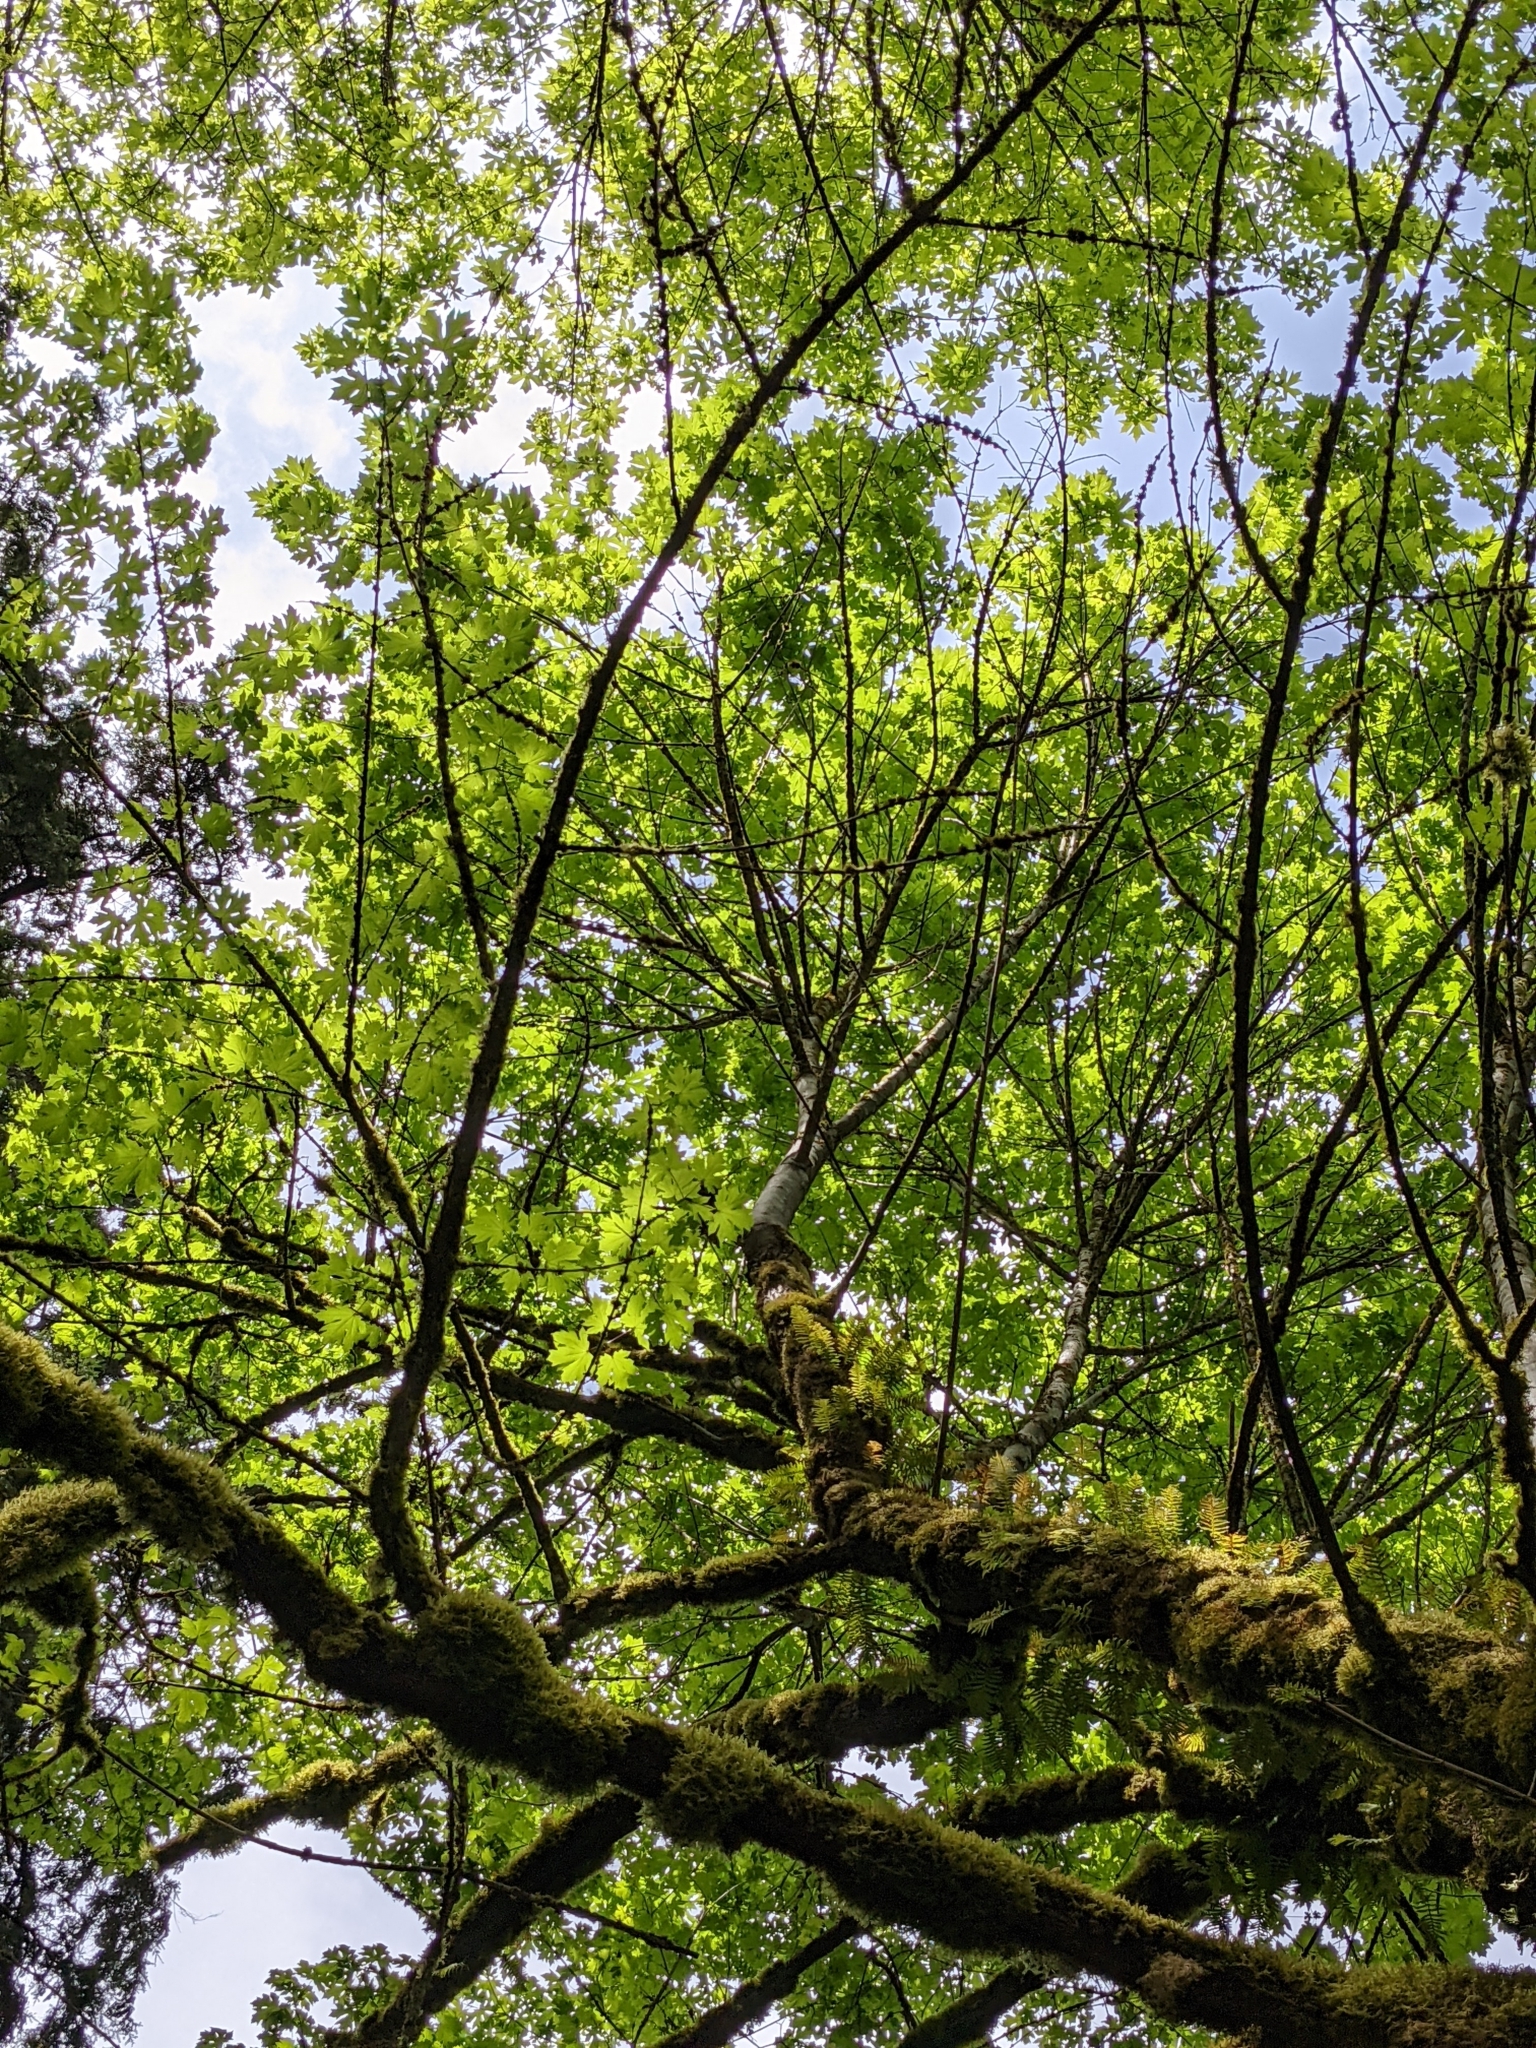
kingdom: Plantae
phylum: Tracheophyta
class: Magnoliopsida
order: Sapindales
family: Sapindaceae
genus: Acer
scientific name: Acer macrophyllum
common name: Oregon maple
